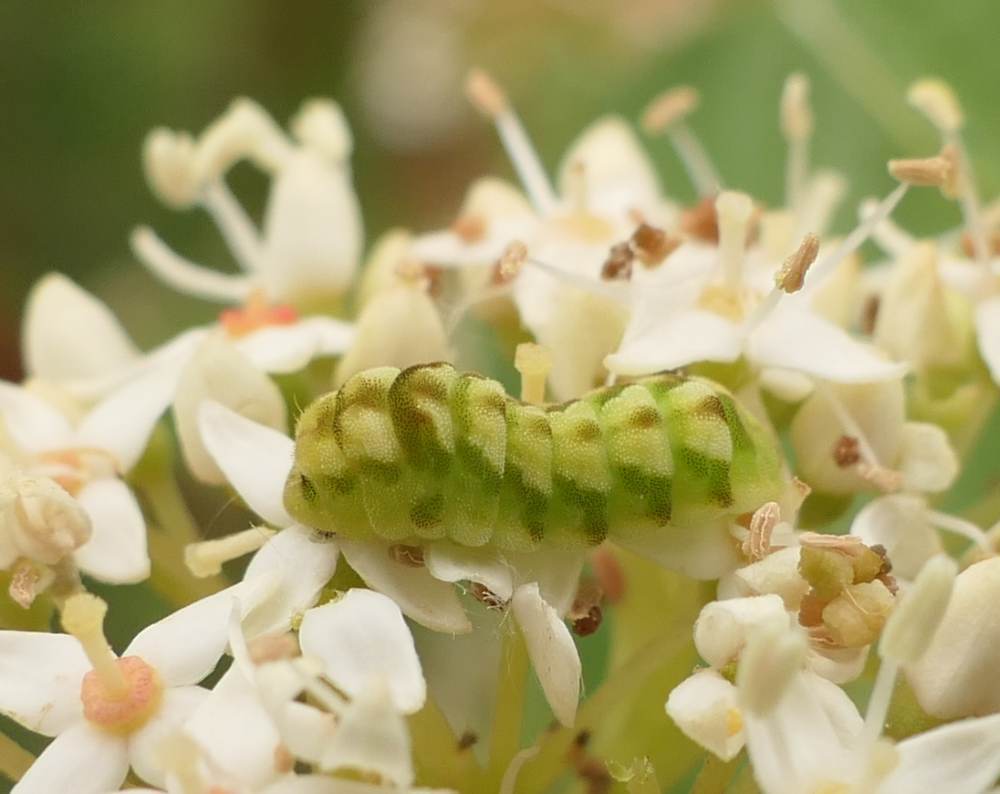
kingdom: Animalia
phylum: Arthropoda
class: Insecta
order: Lepidoptera
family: Lycaenidae
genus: Celastrina
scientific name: Celastrina lucia
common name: Lucia azure
